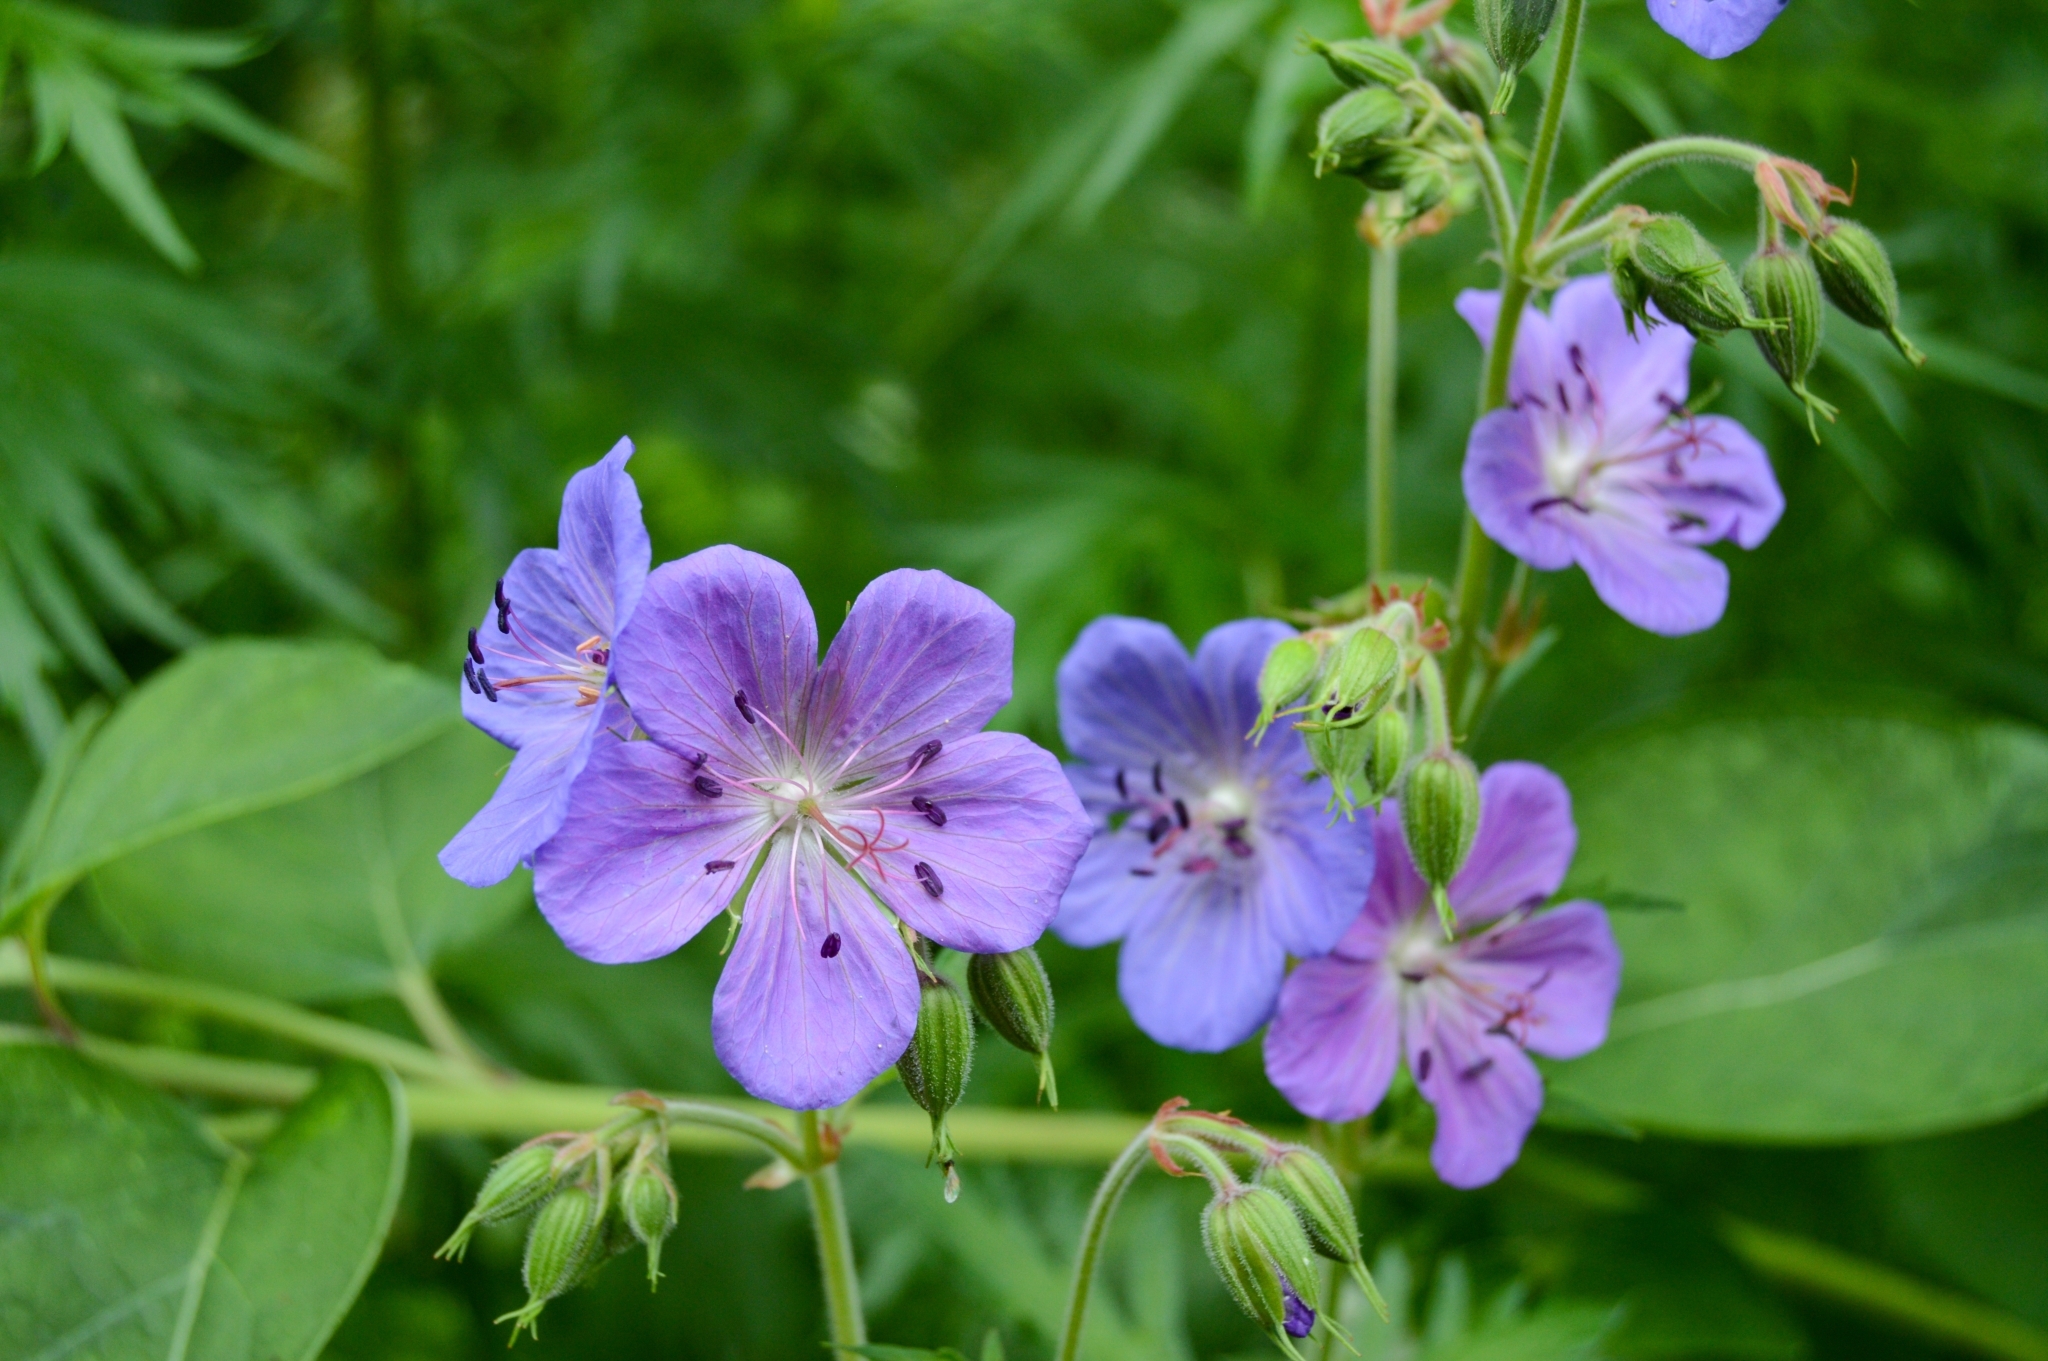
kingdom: Plantae
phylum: Tracheophyta
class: Magnoliopsida
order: Geraniales
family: Geraniaceae
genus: Geranium
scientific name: Geranium pratense
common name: Meadow crane's-bill
